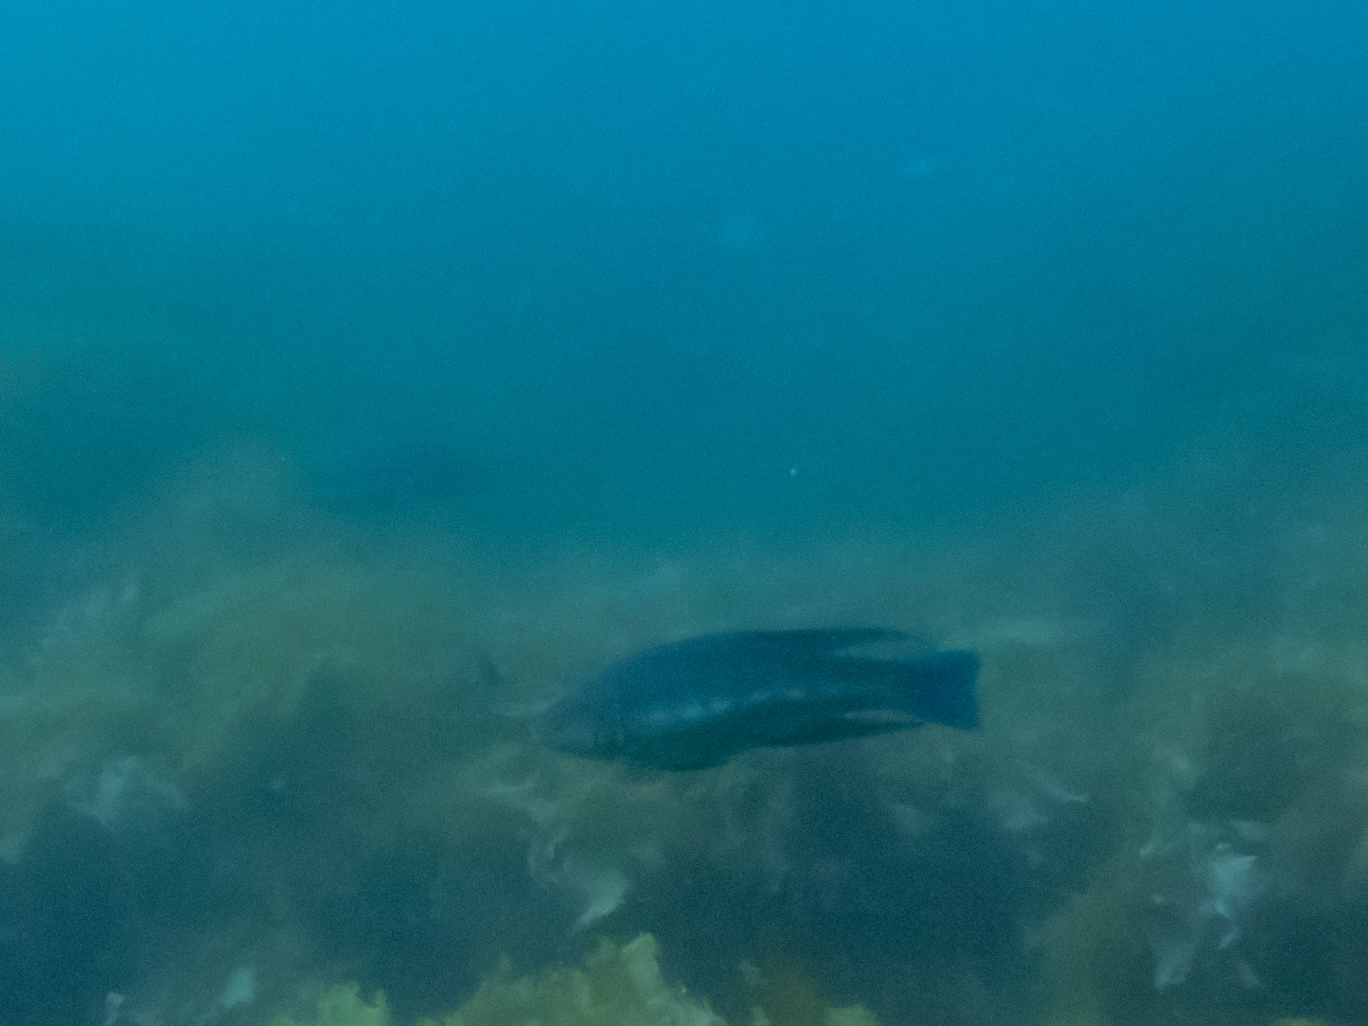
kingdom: Animalia
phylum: Chordata
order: Perciformes
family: Odacidae
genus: Odax
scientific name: Odax pullus
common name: Butterfish
